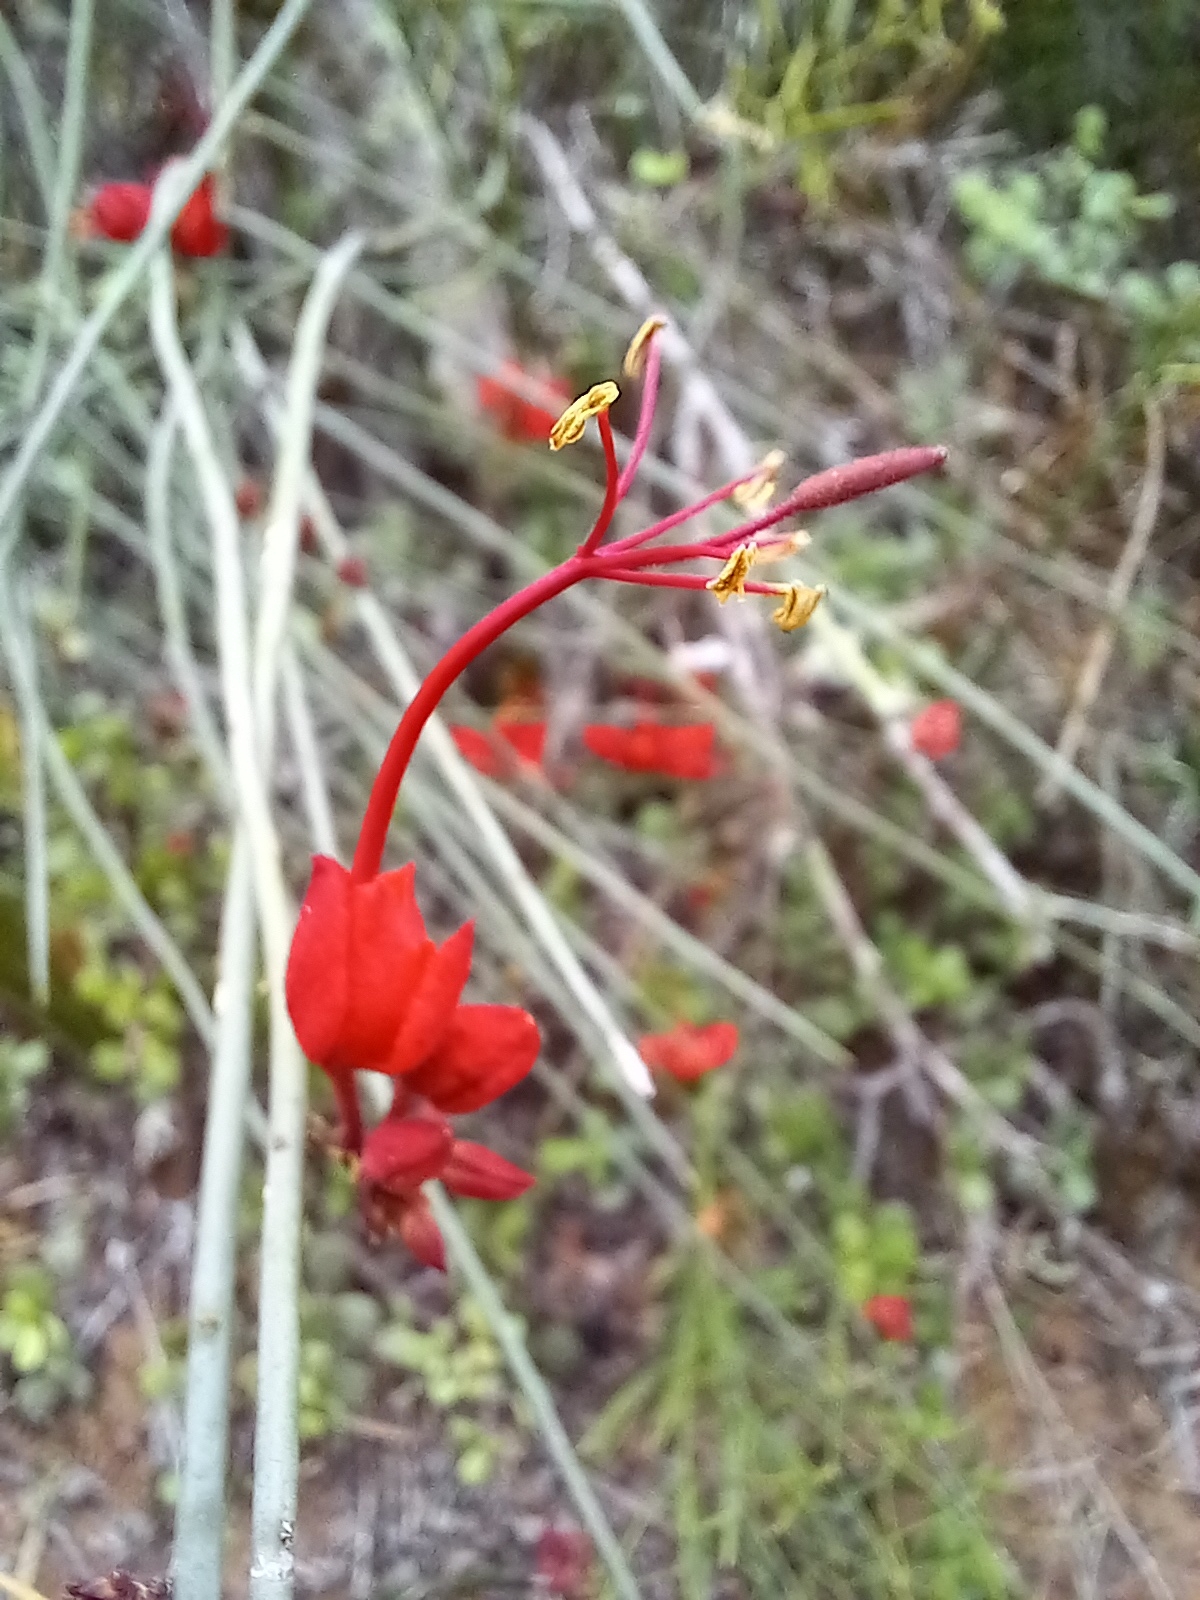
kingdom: Plantae
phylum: Tracheophyta
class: Magnoliopsida
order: Brassicales
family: Capparaceae
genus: Cadaba
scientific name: Cadaba aphylla
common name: Black storm
